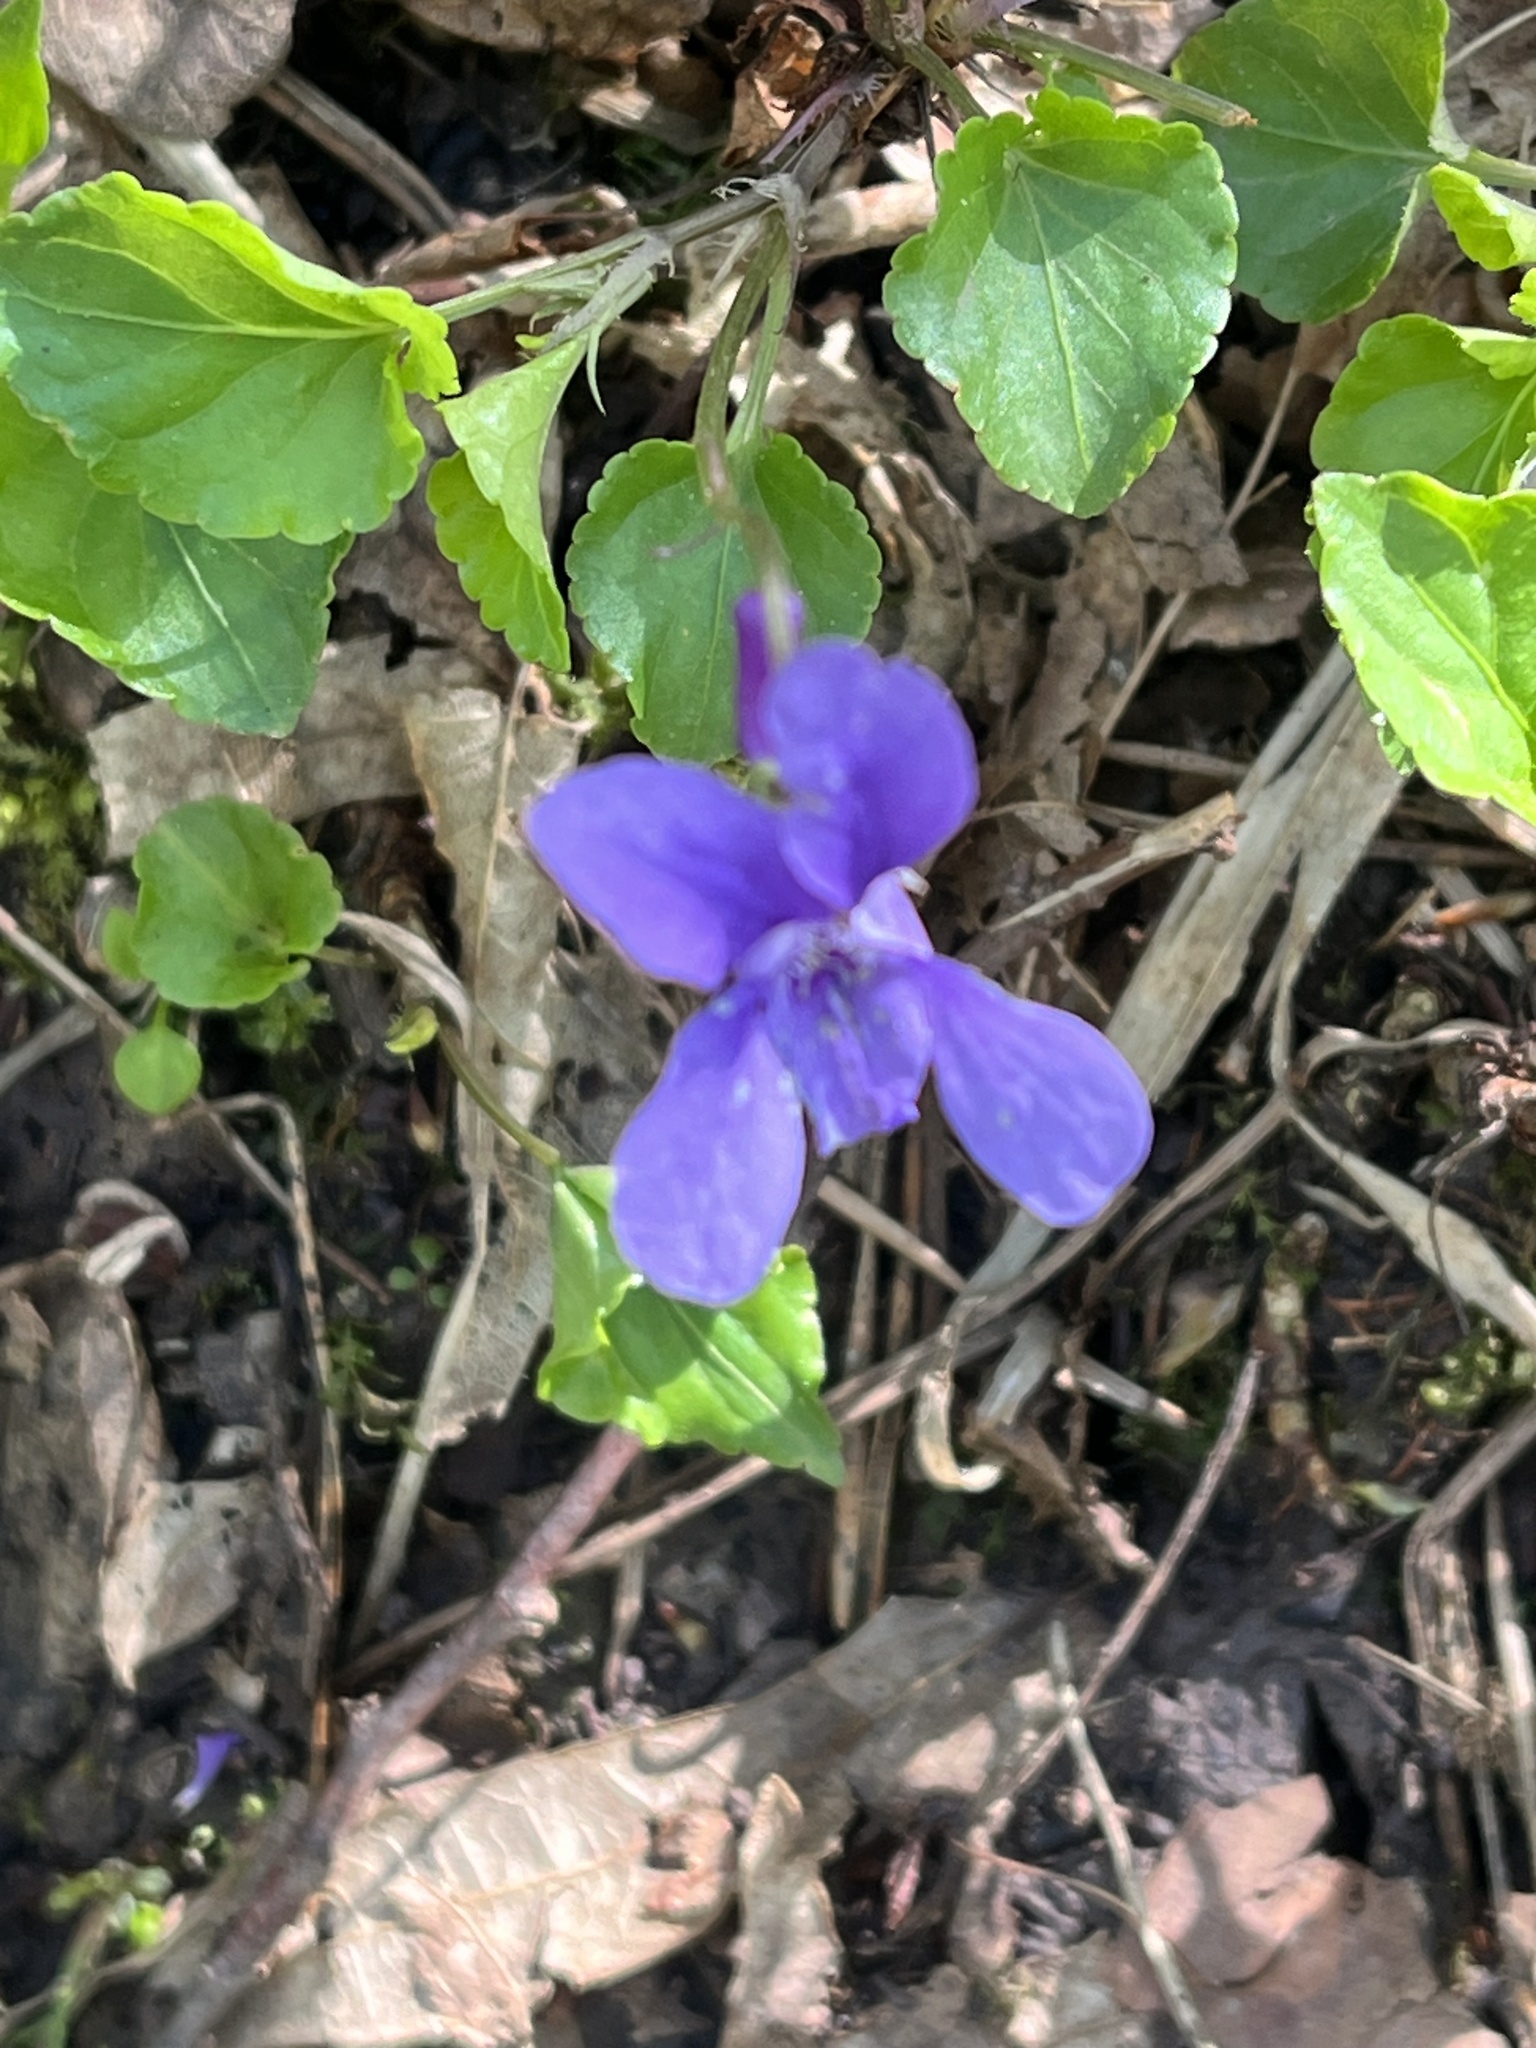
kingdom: Plantae
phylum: Tracheophyta
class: Magnoliopsida
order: Malpighiales
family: Violaceae
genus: Viola
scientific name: Viola reichenbachiana
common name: Early dog-violet
